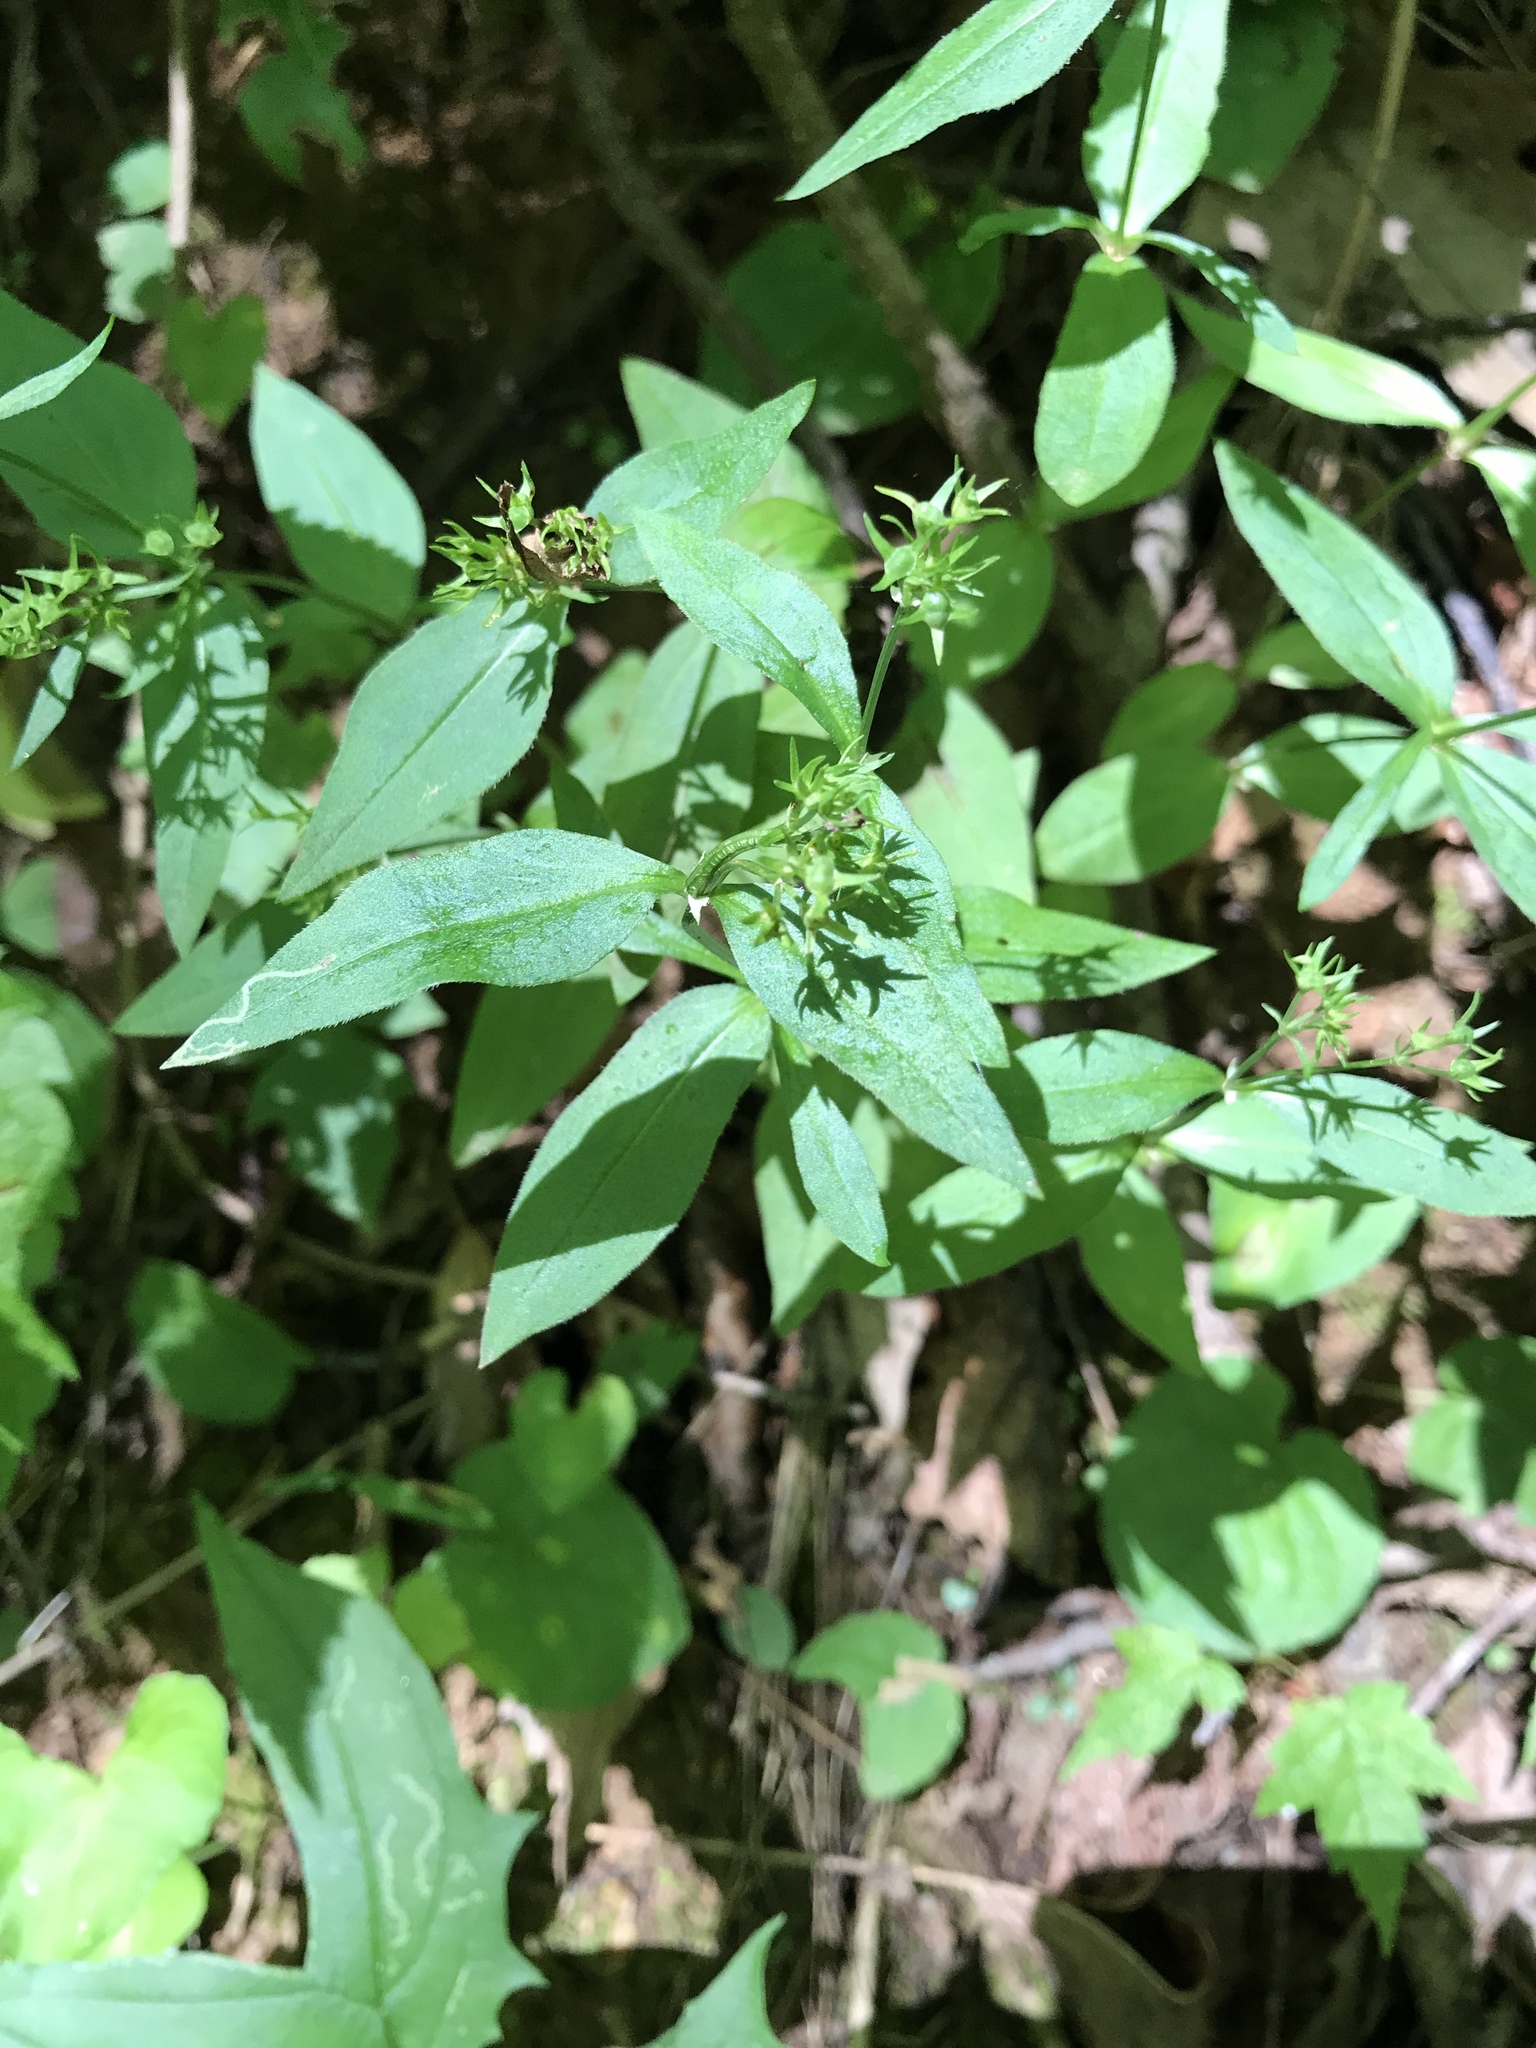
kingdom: Plantae
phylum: Tracheophyta
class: Magnoliopsida
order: Gentianales
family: Rubiaceae
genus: Houstonia
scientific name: Houstonia purpurea
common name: Summer bluet
